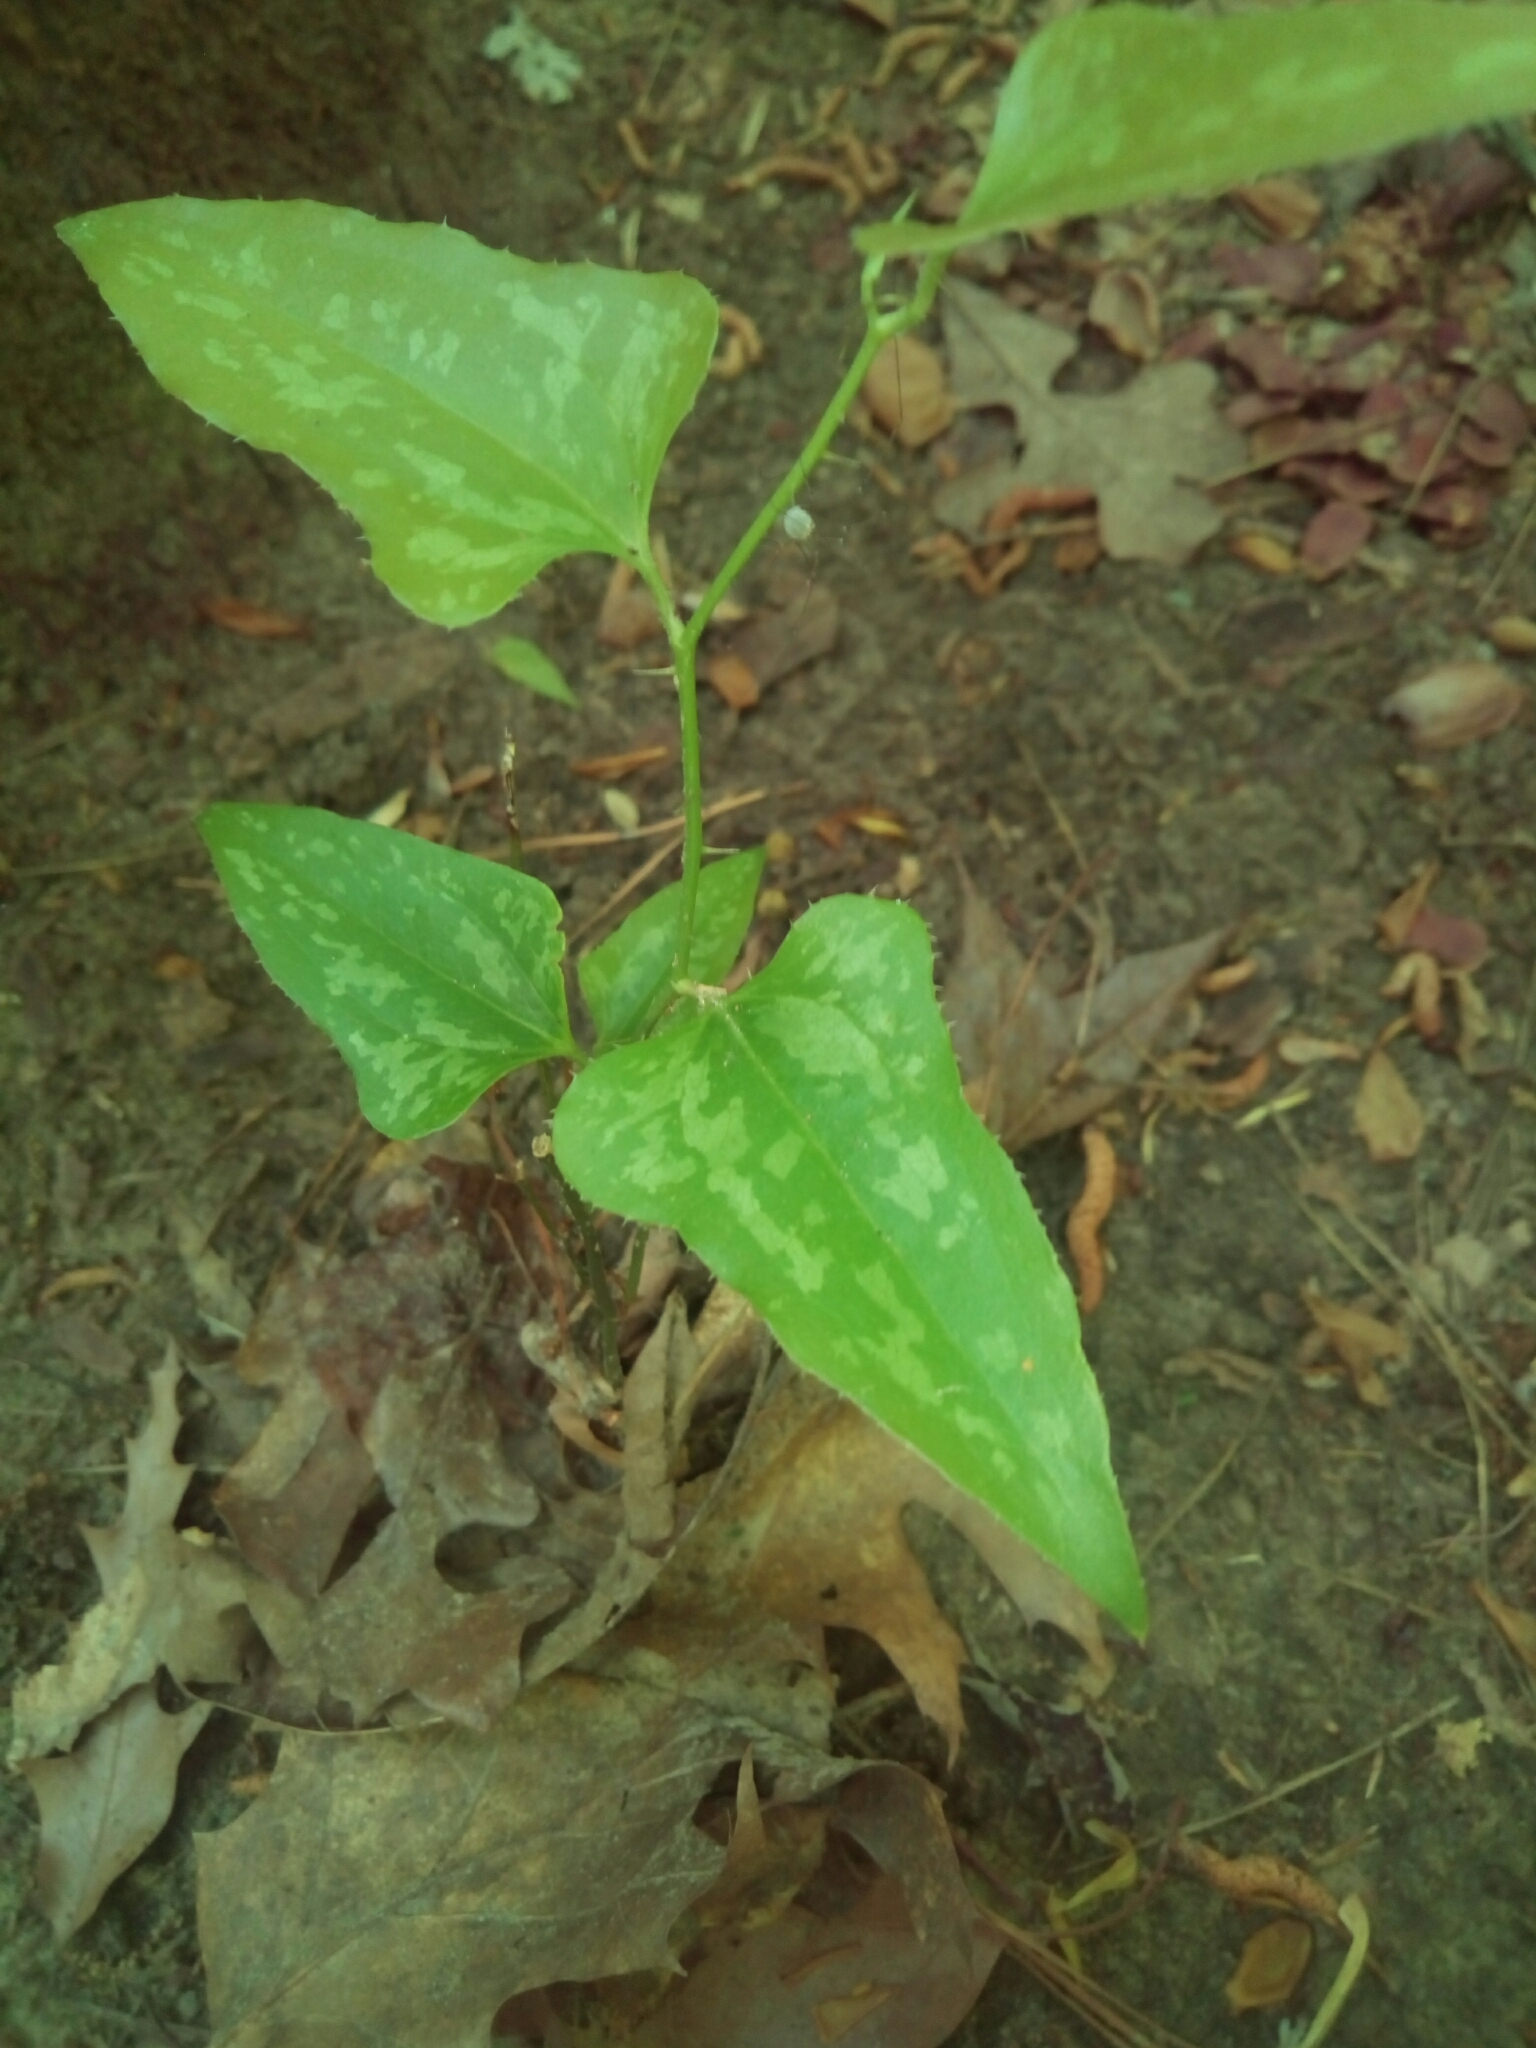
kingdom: Plantae
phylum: Tracheophyta
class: Liliopsida
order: Liliales
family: Smilacaceae
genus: Smilax
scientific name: Smilax bona-nox
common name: Catbrier
